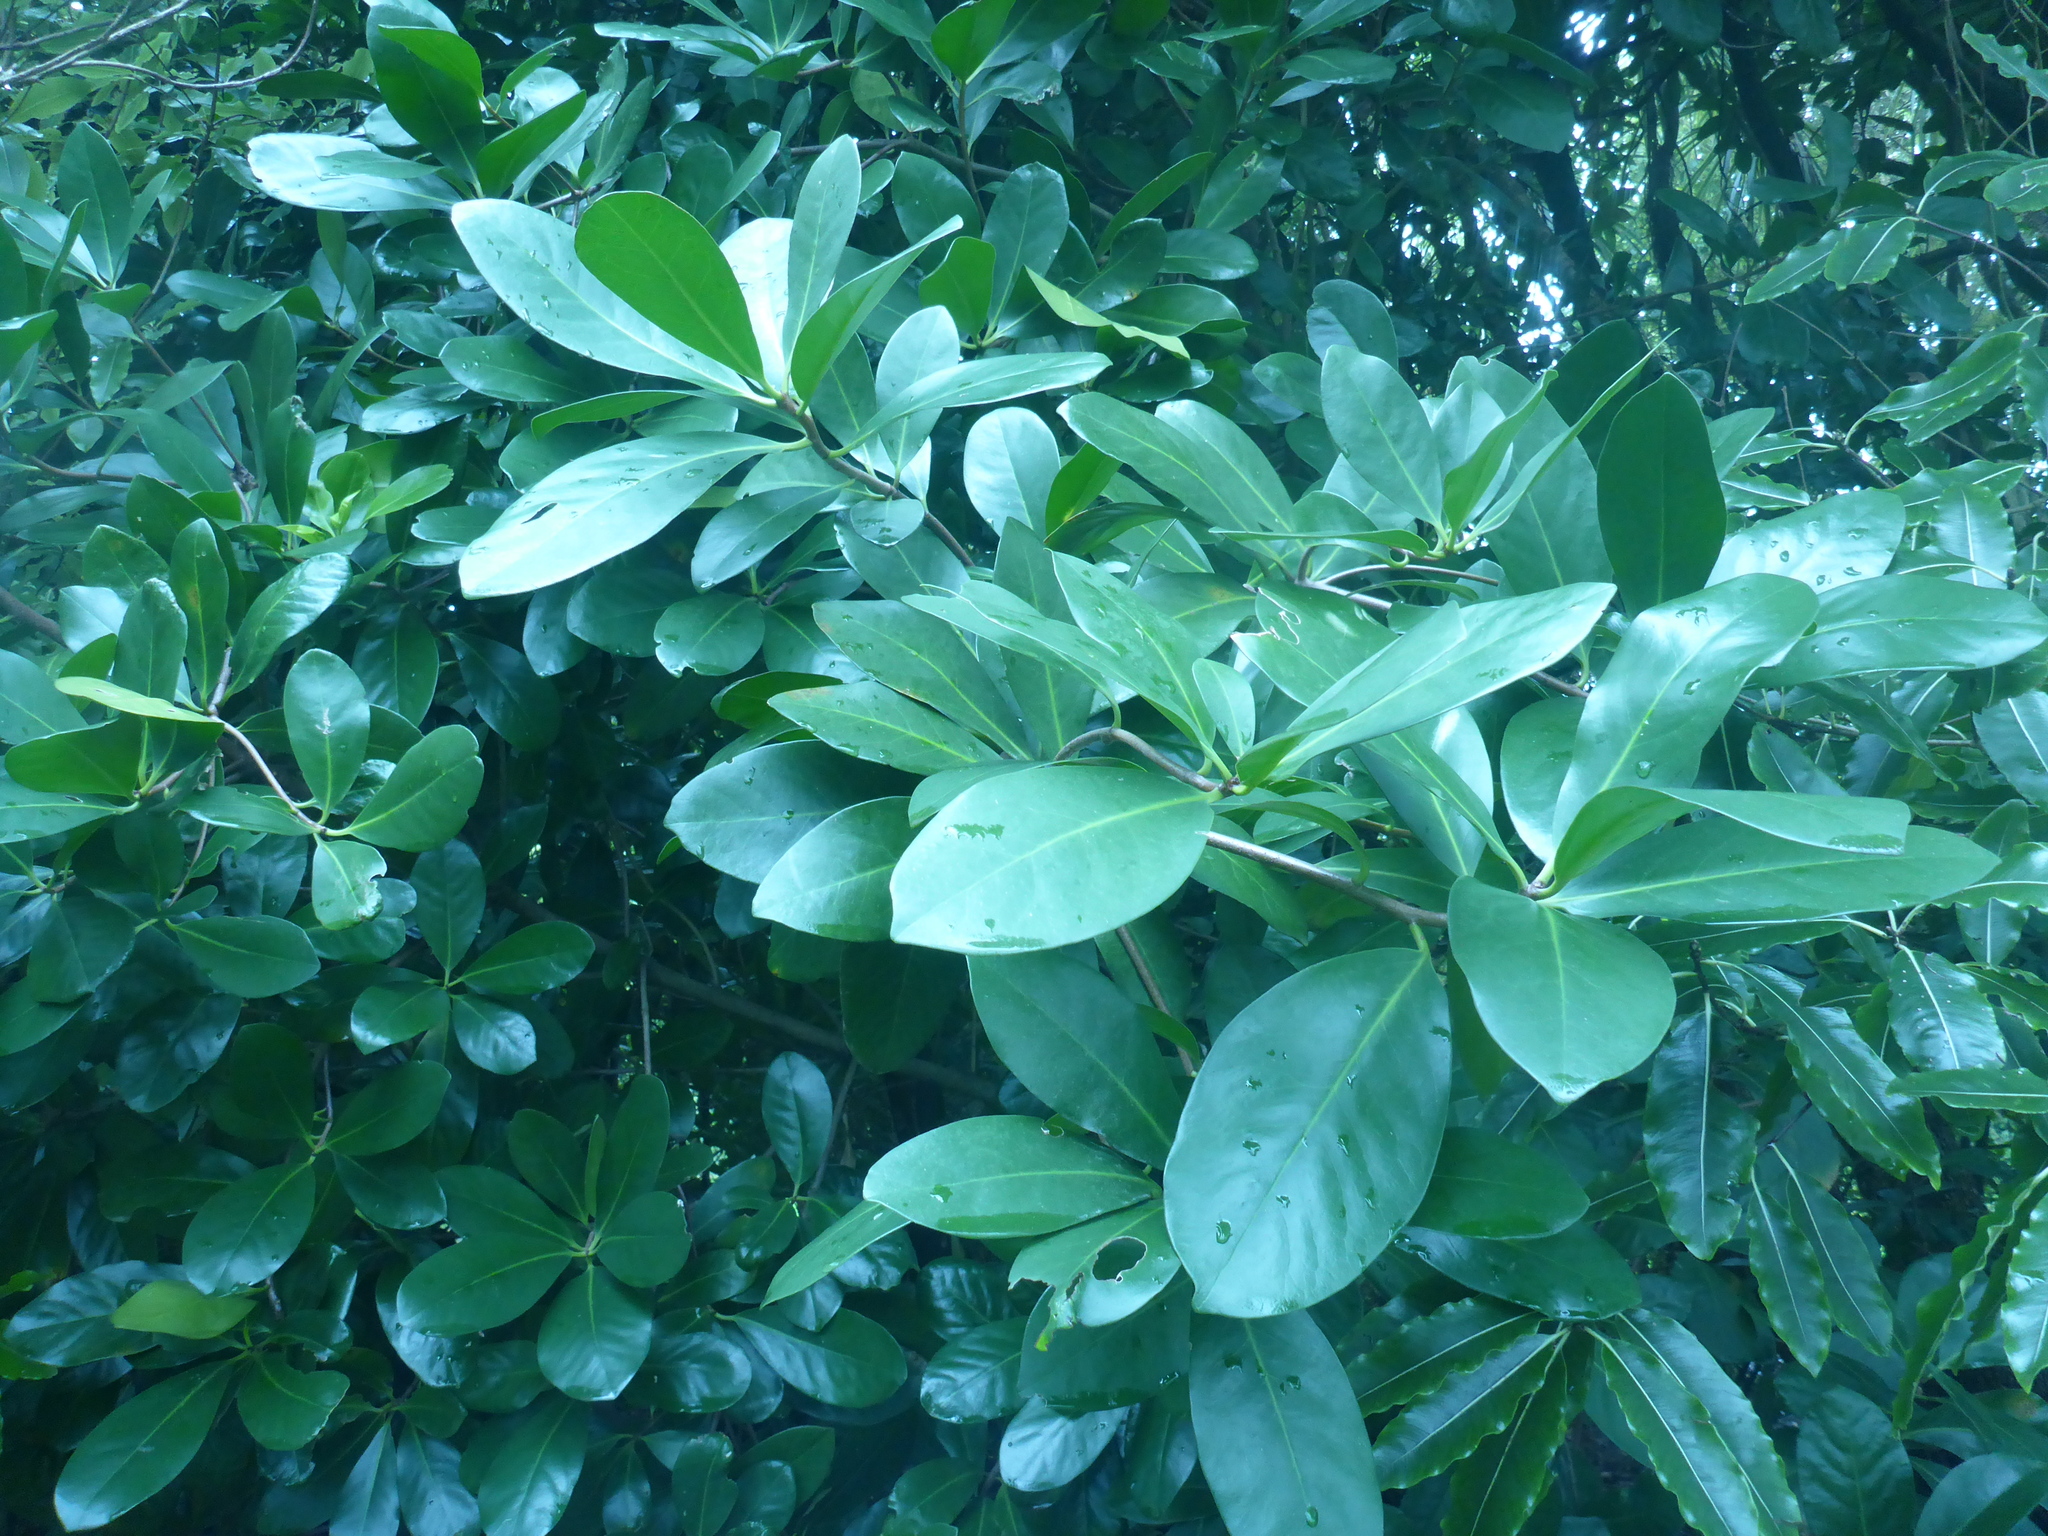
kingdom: Plantae
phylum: Tracheophyta
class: Magnoliopsida
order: Cucurbitales
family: Corynocarpaceae
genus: Corynocarpus
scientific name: Corynocarpus laevigatus
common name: New zealand laurel
